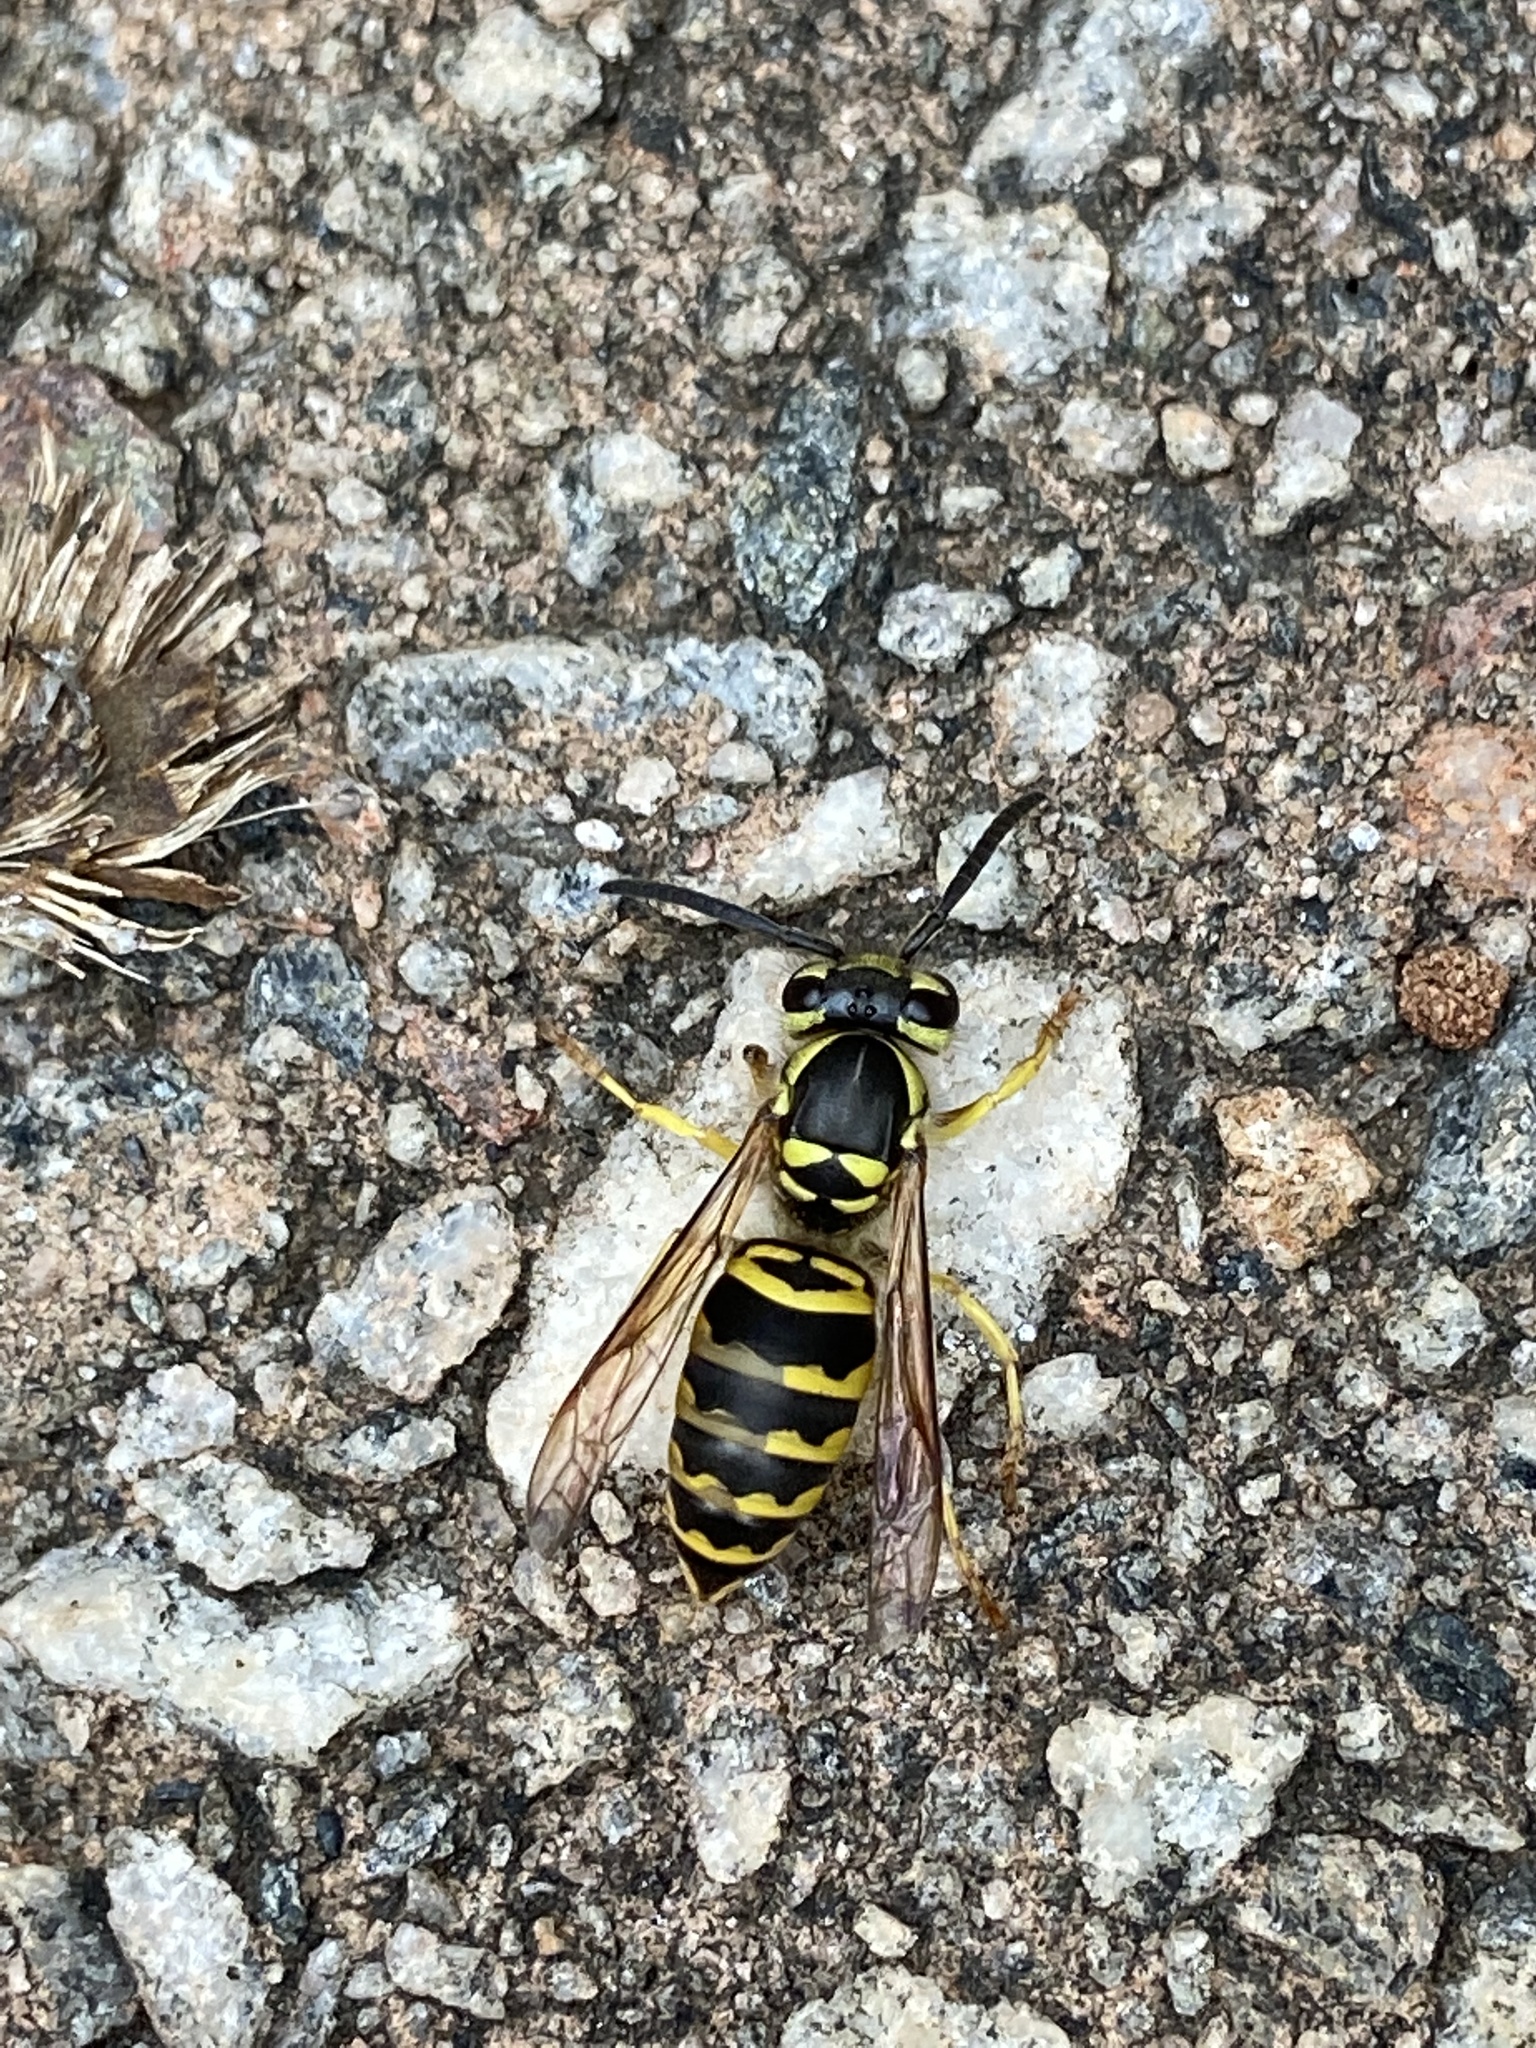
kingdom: Animalia
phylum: Arthropoda
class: Insecta
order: Hymenoptera
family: Vespidae
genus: Vespula
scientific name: Vespula maculifrons
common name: Eastern yellowjacket
